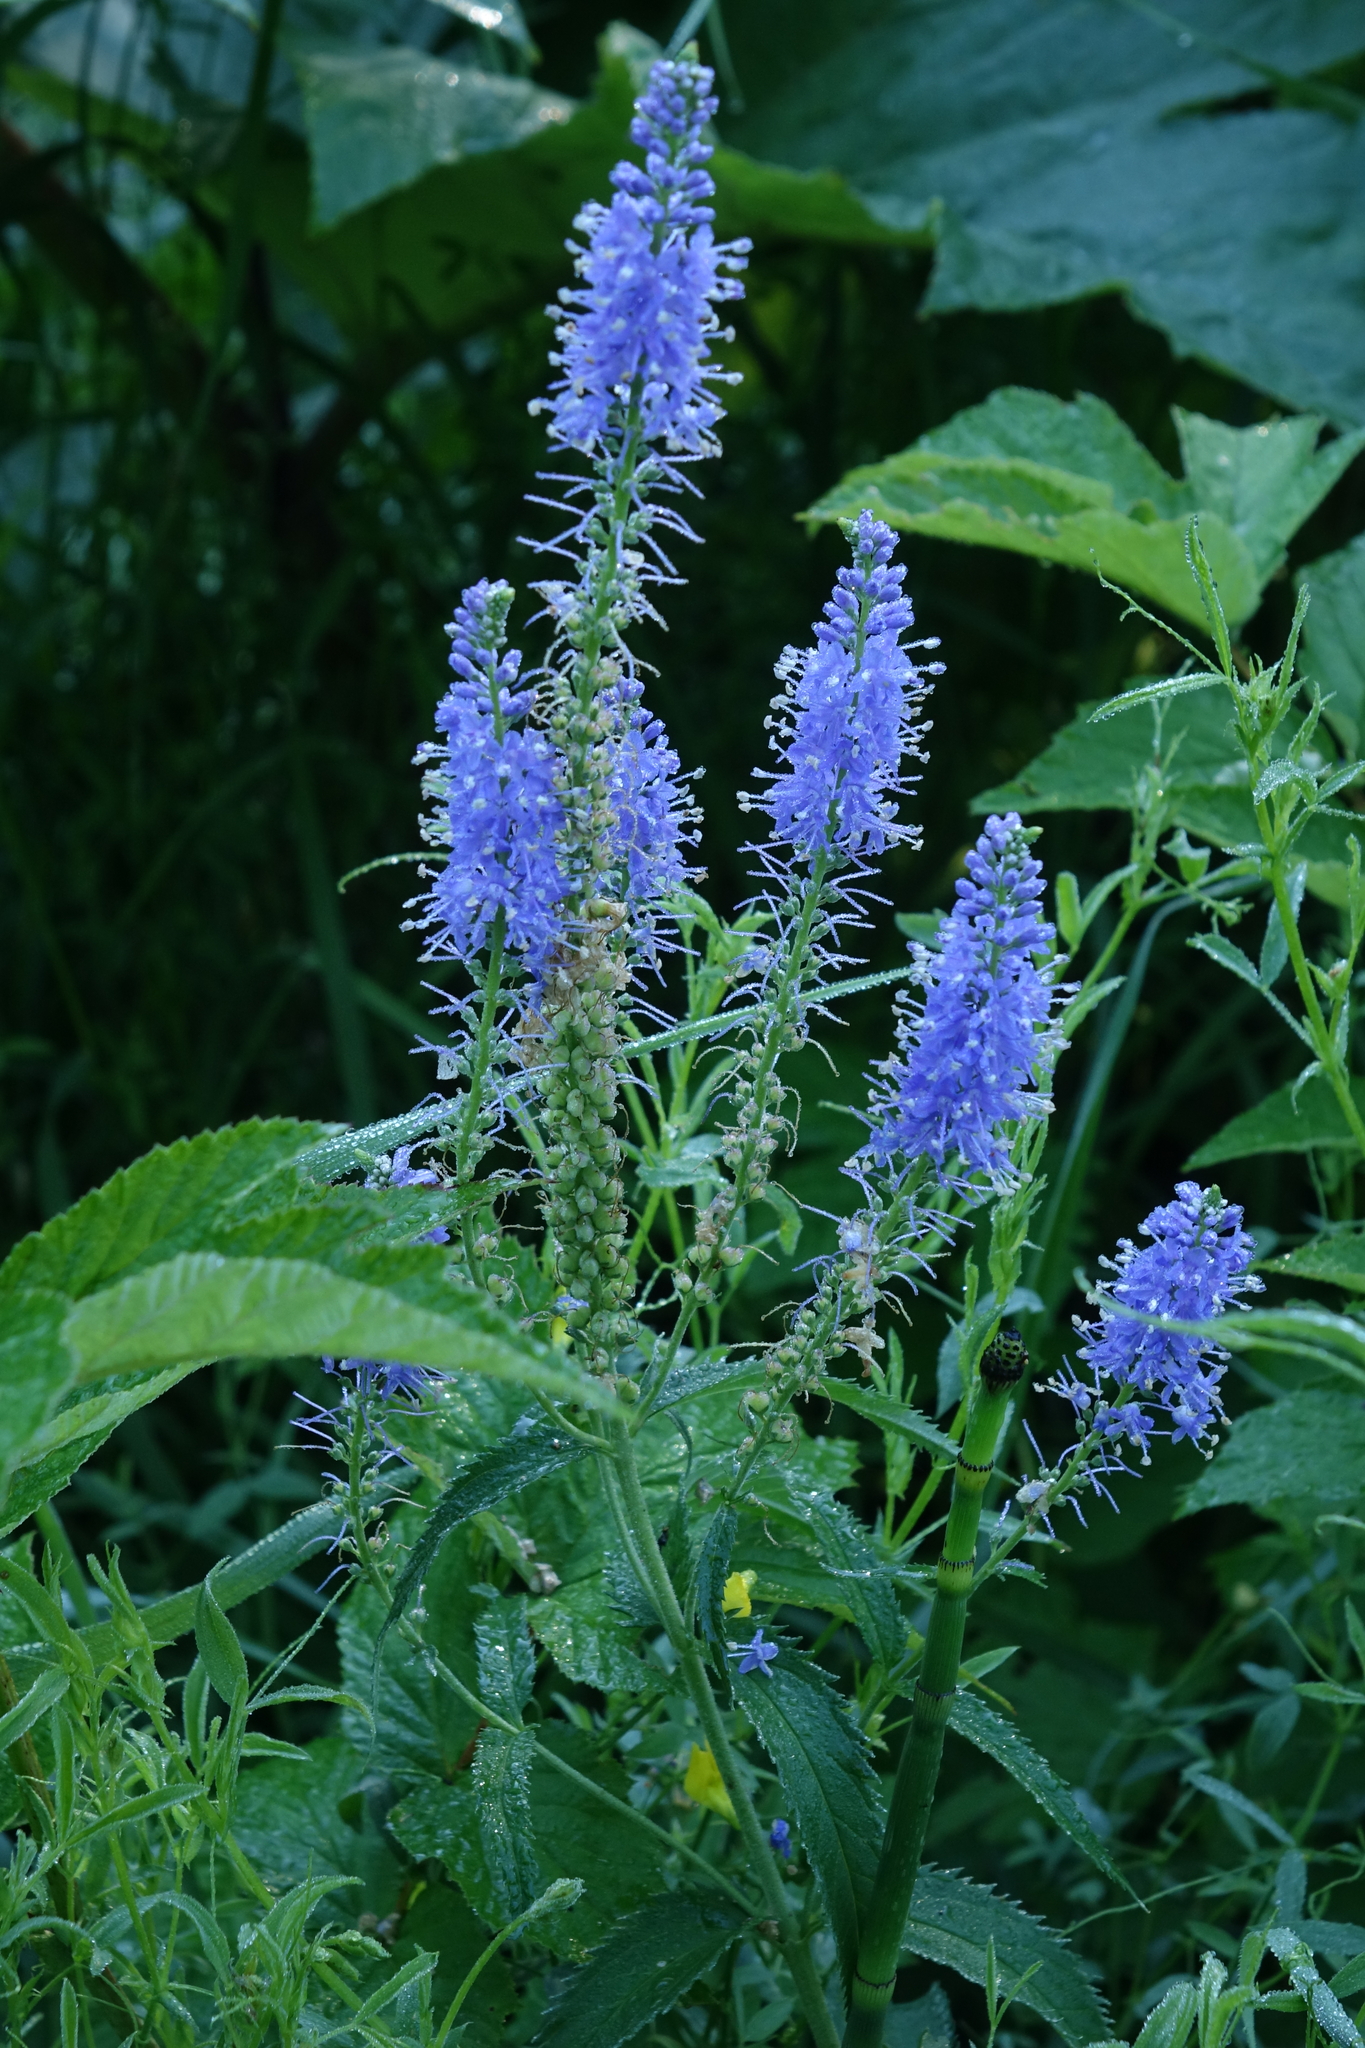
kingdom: Plantae
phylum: Tracheophyta
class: Magnoliopsida
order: Lamiales
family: Plantaginaceae
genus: Veronica
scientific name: Veronica longifolia
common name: Garden speedwell
